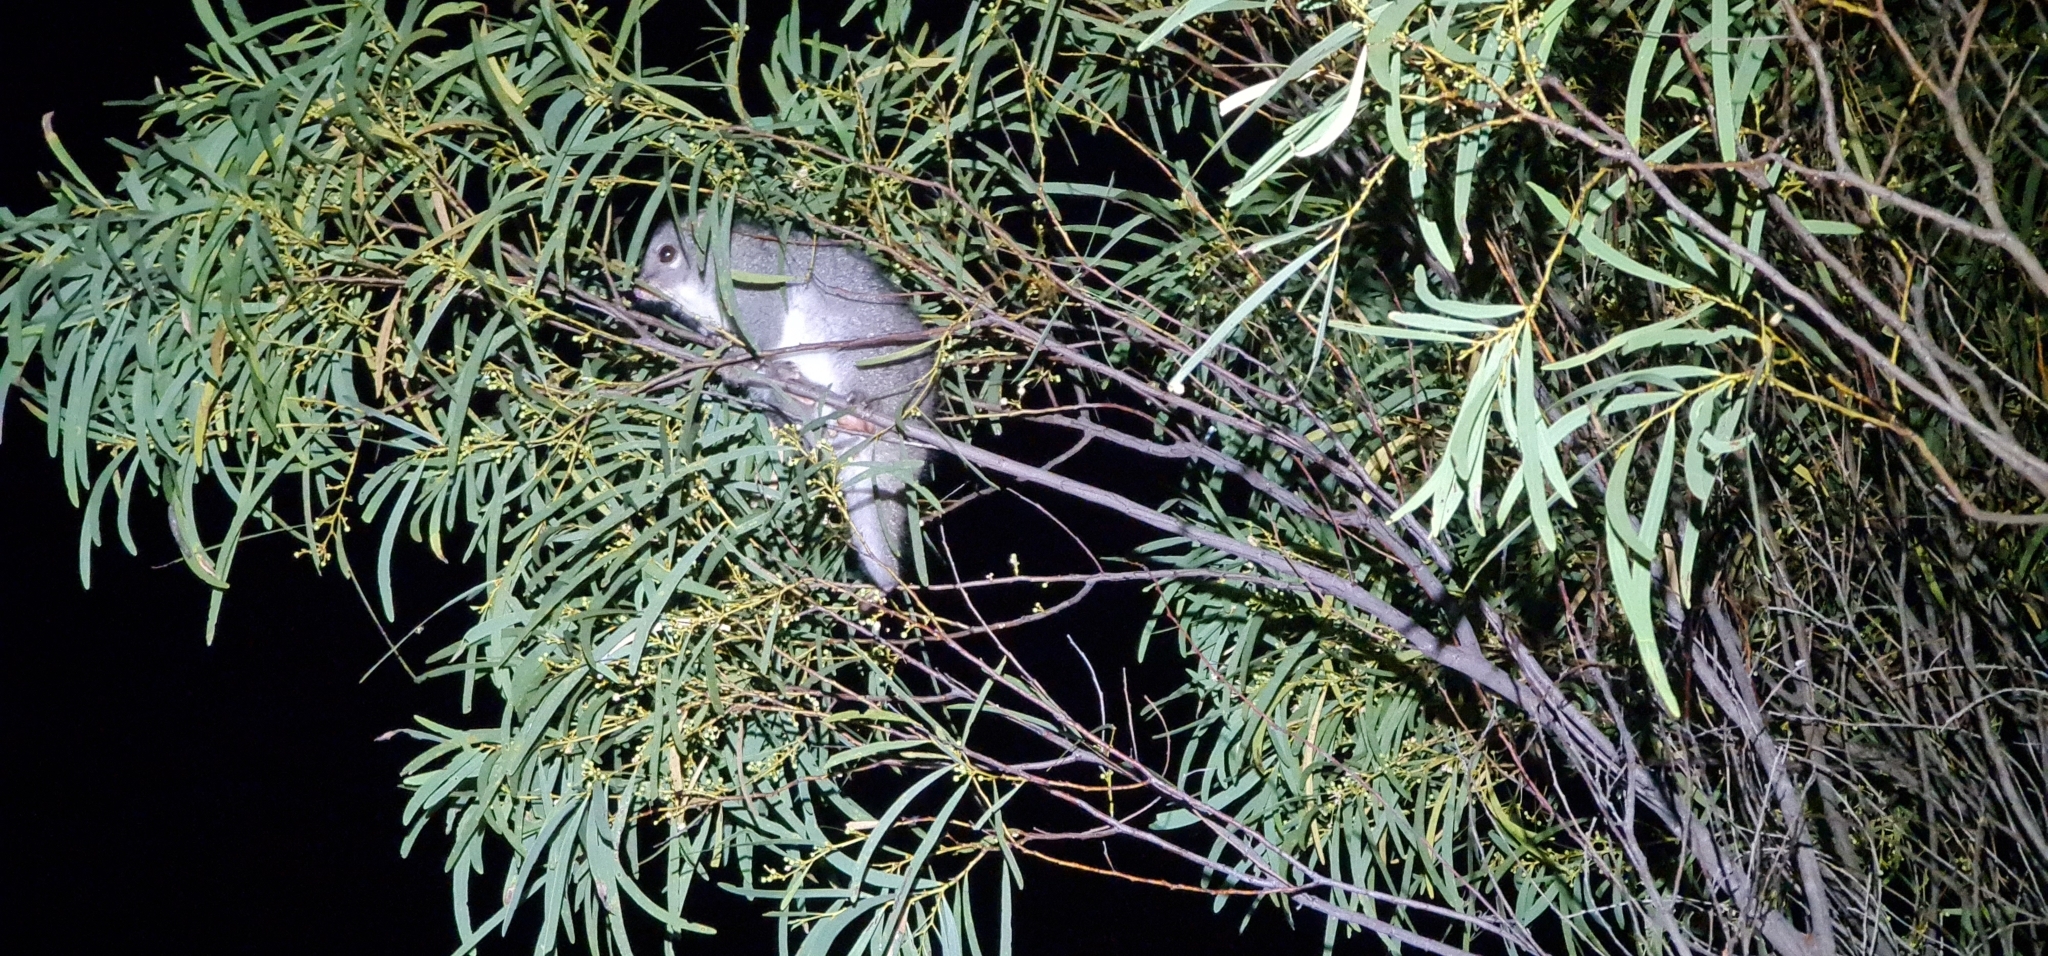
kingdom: Animalia
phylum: Chordata
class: Mammalia
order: Diprotodontia
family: Pseudocheiridae
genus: Petropseudes
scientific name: Petropseudes dahli
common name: Rock-haunting ringtail
